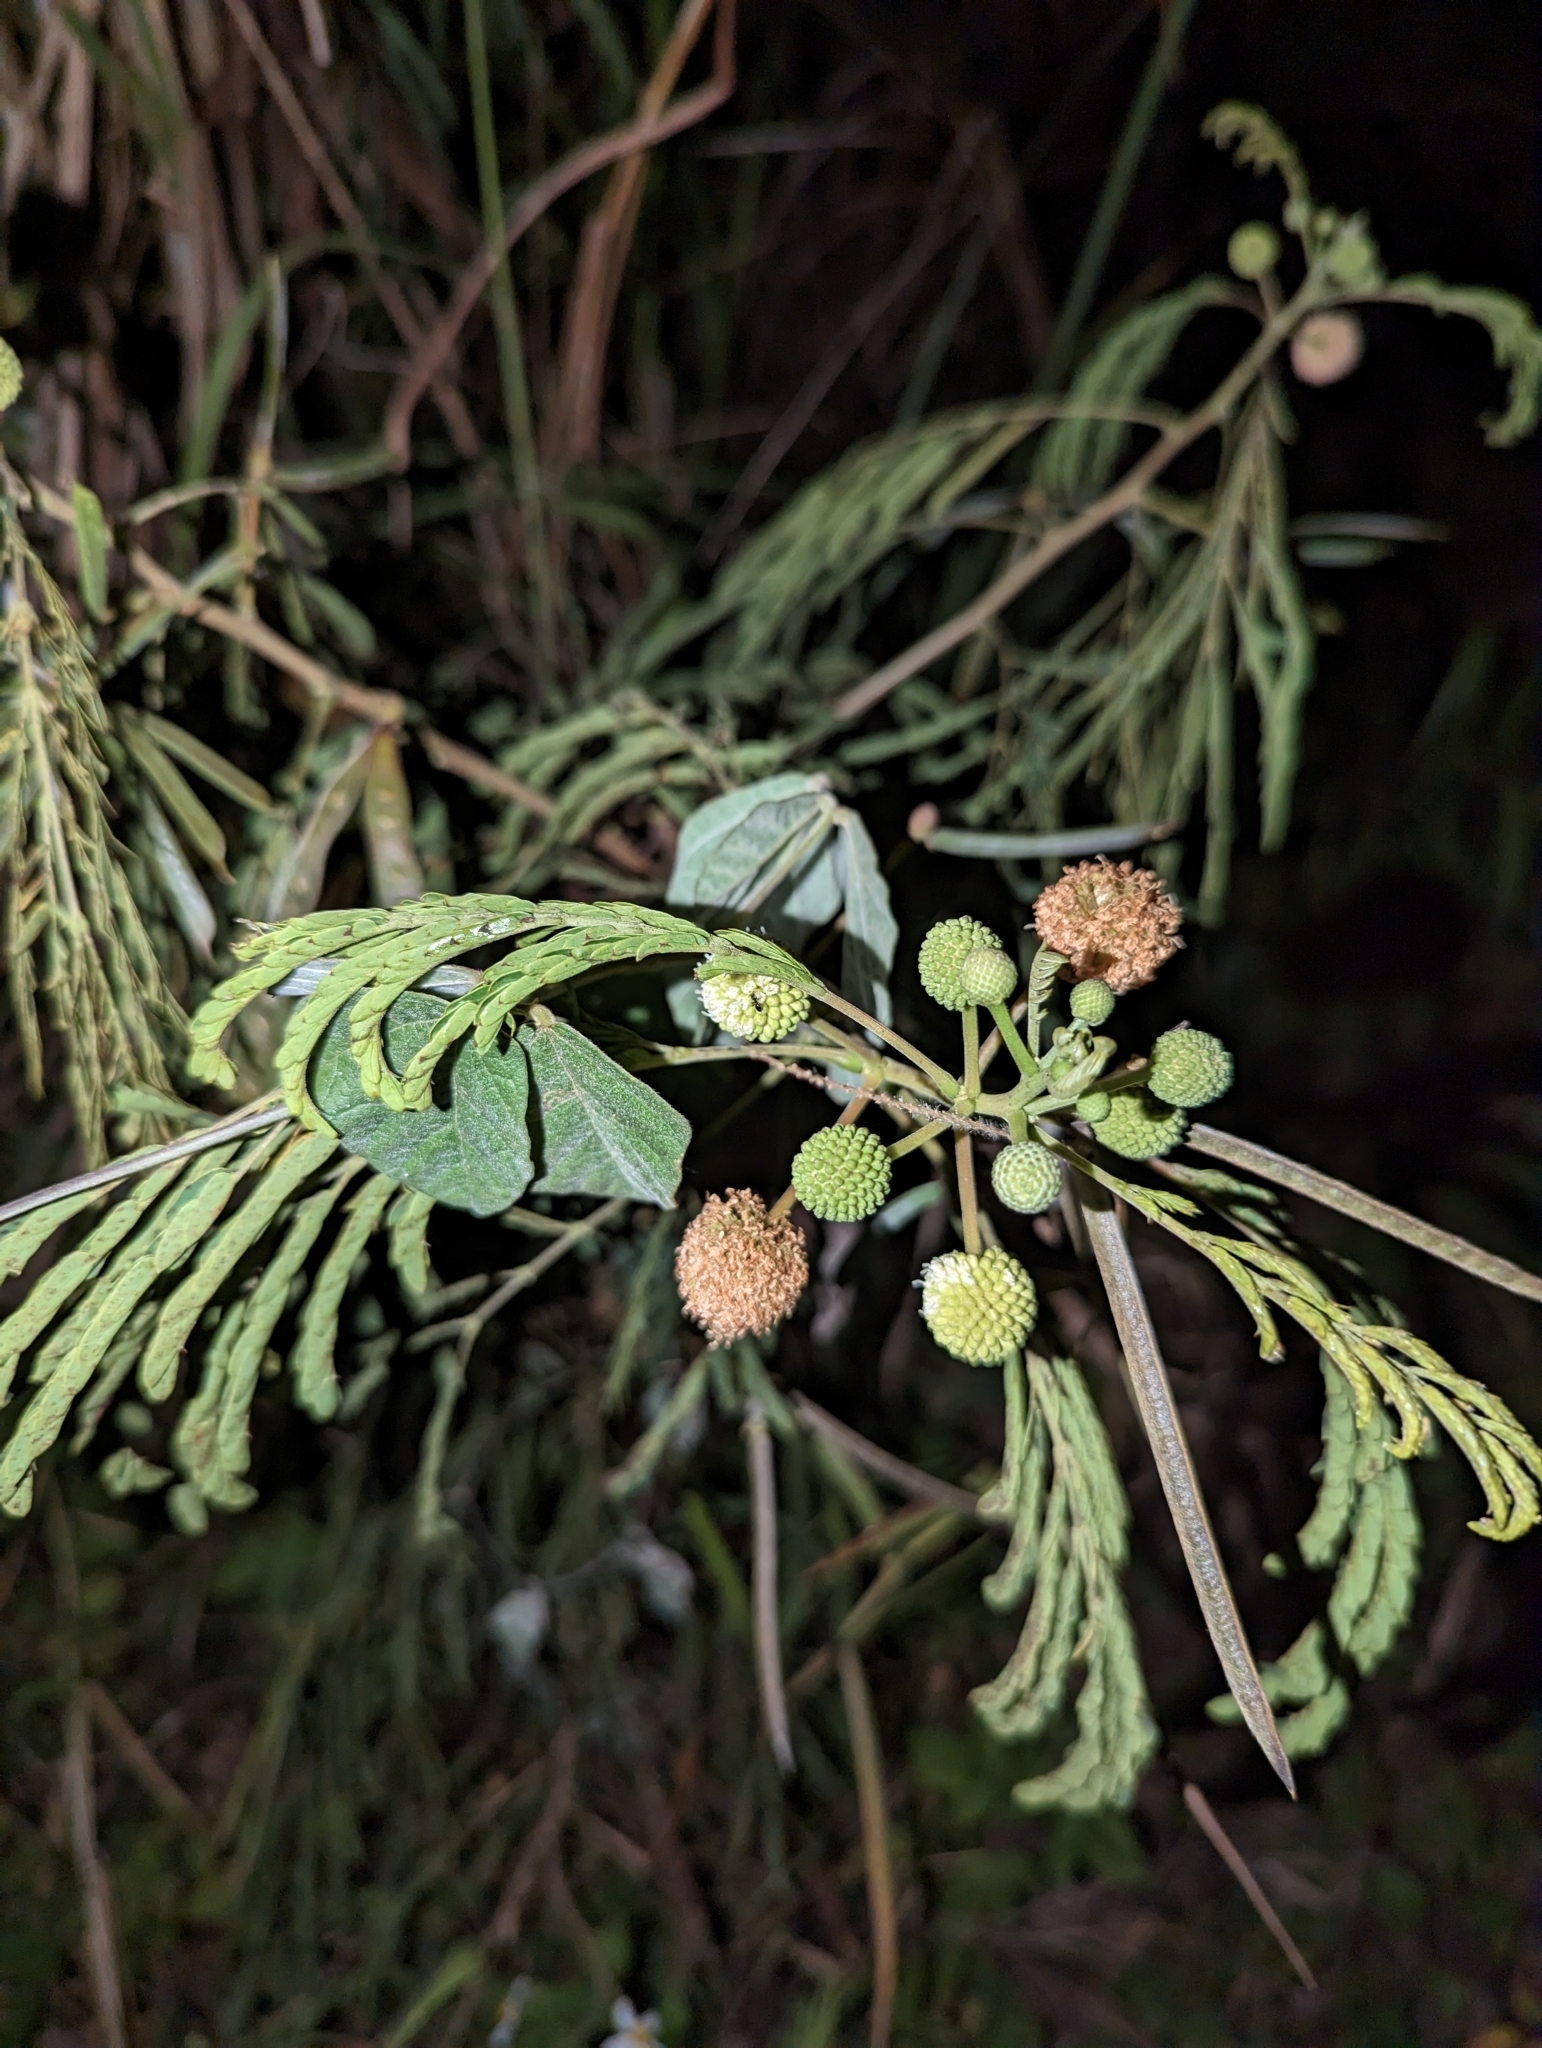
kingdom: Plantae
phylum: Tracheophyta
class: Magnoliopsida
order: Fabales
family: Fabaceae
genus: Leucaena
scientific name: Leucaena leucocephala
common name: White leadtree
